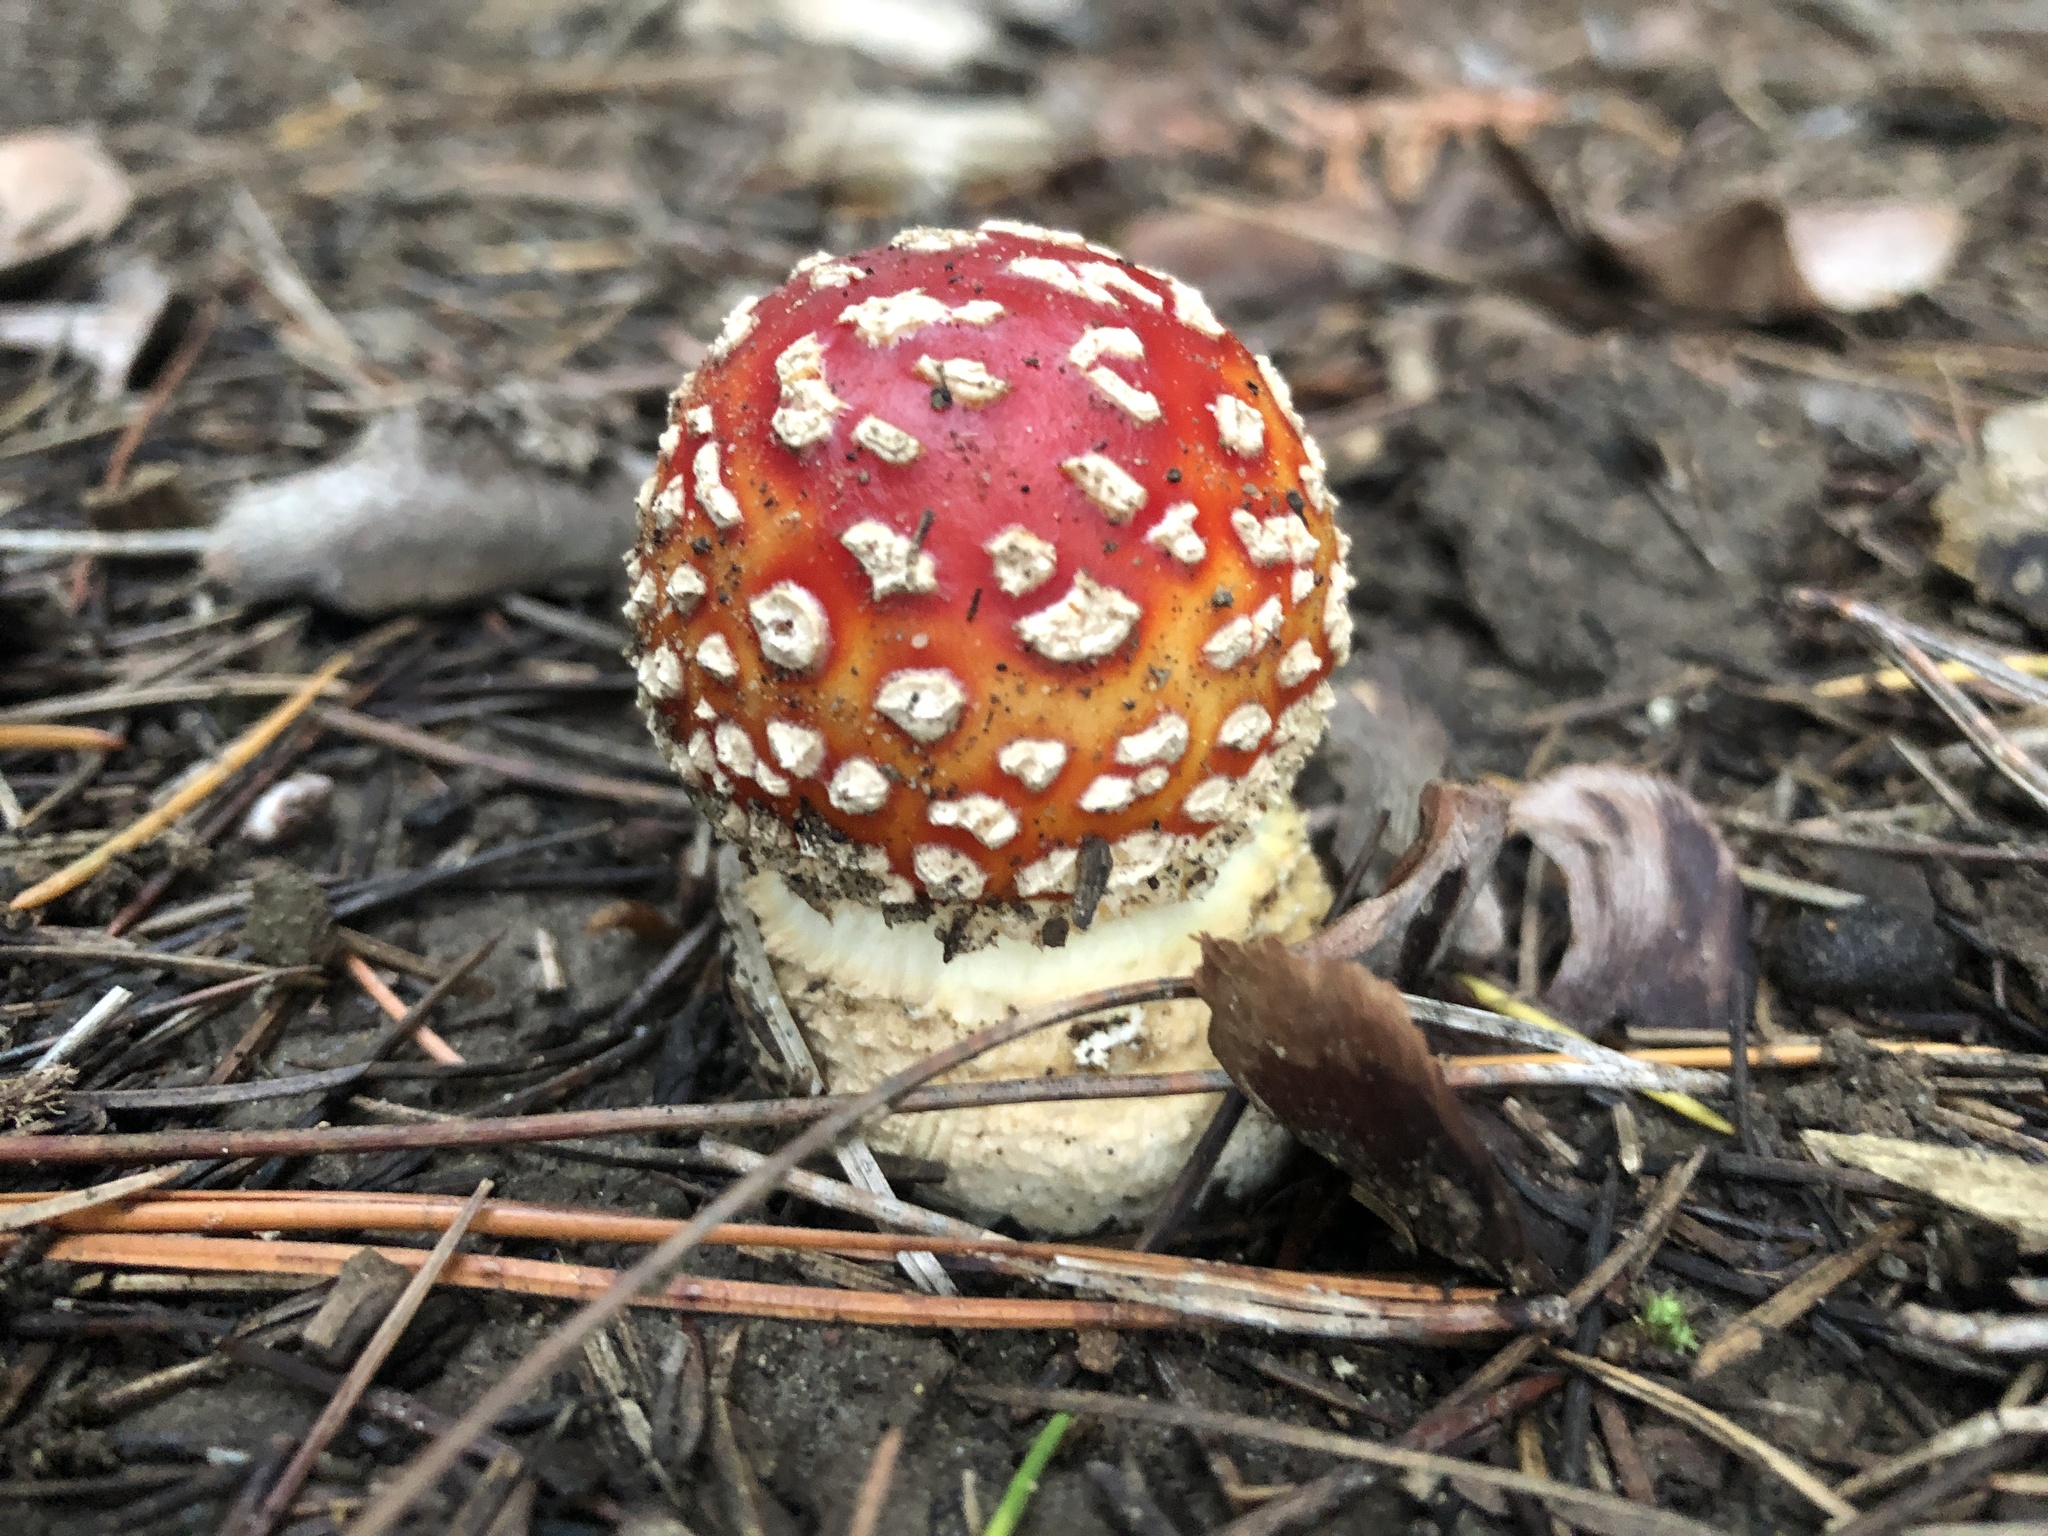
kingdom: Fungi
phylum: Basidiomycota
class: Agaricomycetes
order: Agaricales
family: Amanitaceae
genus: Amanita
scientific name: Amanita muscaria
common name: Fly agaric
